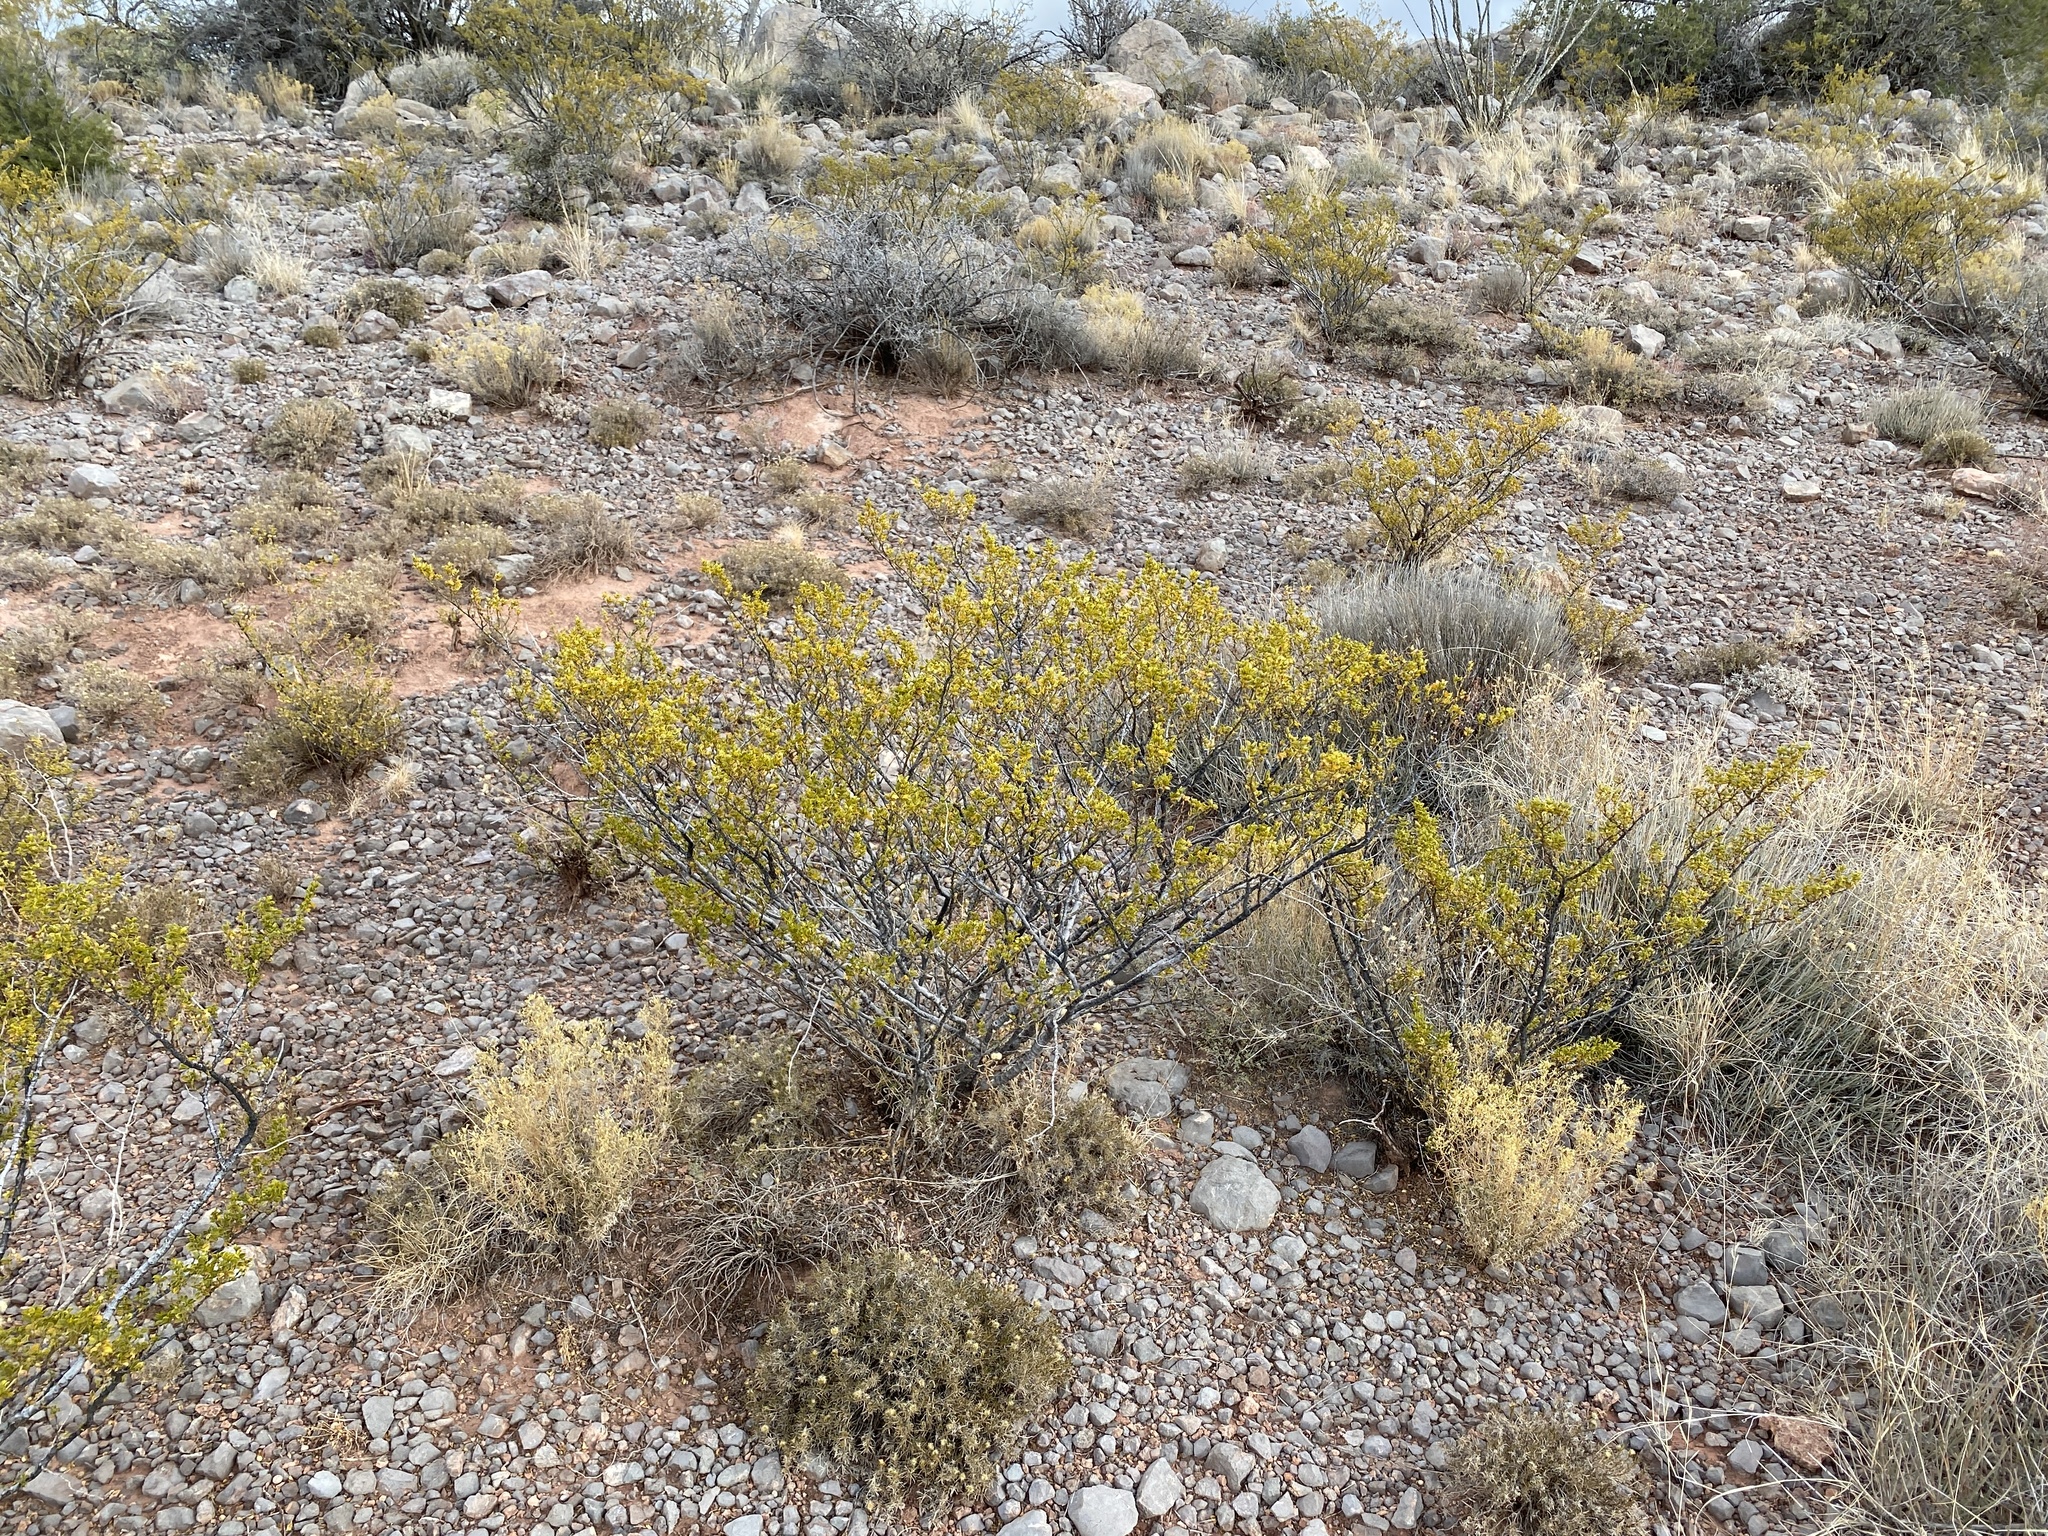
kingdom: Plantae
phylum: Tracheophyta
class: Magnoliopsida
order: Zygophyllales
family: Zygophyllaceae
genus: Larrea
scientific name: Larrea tridentata
